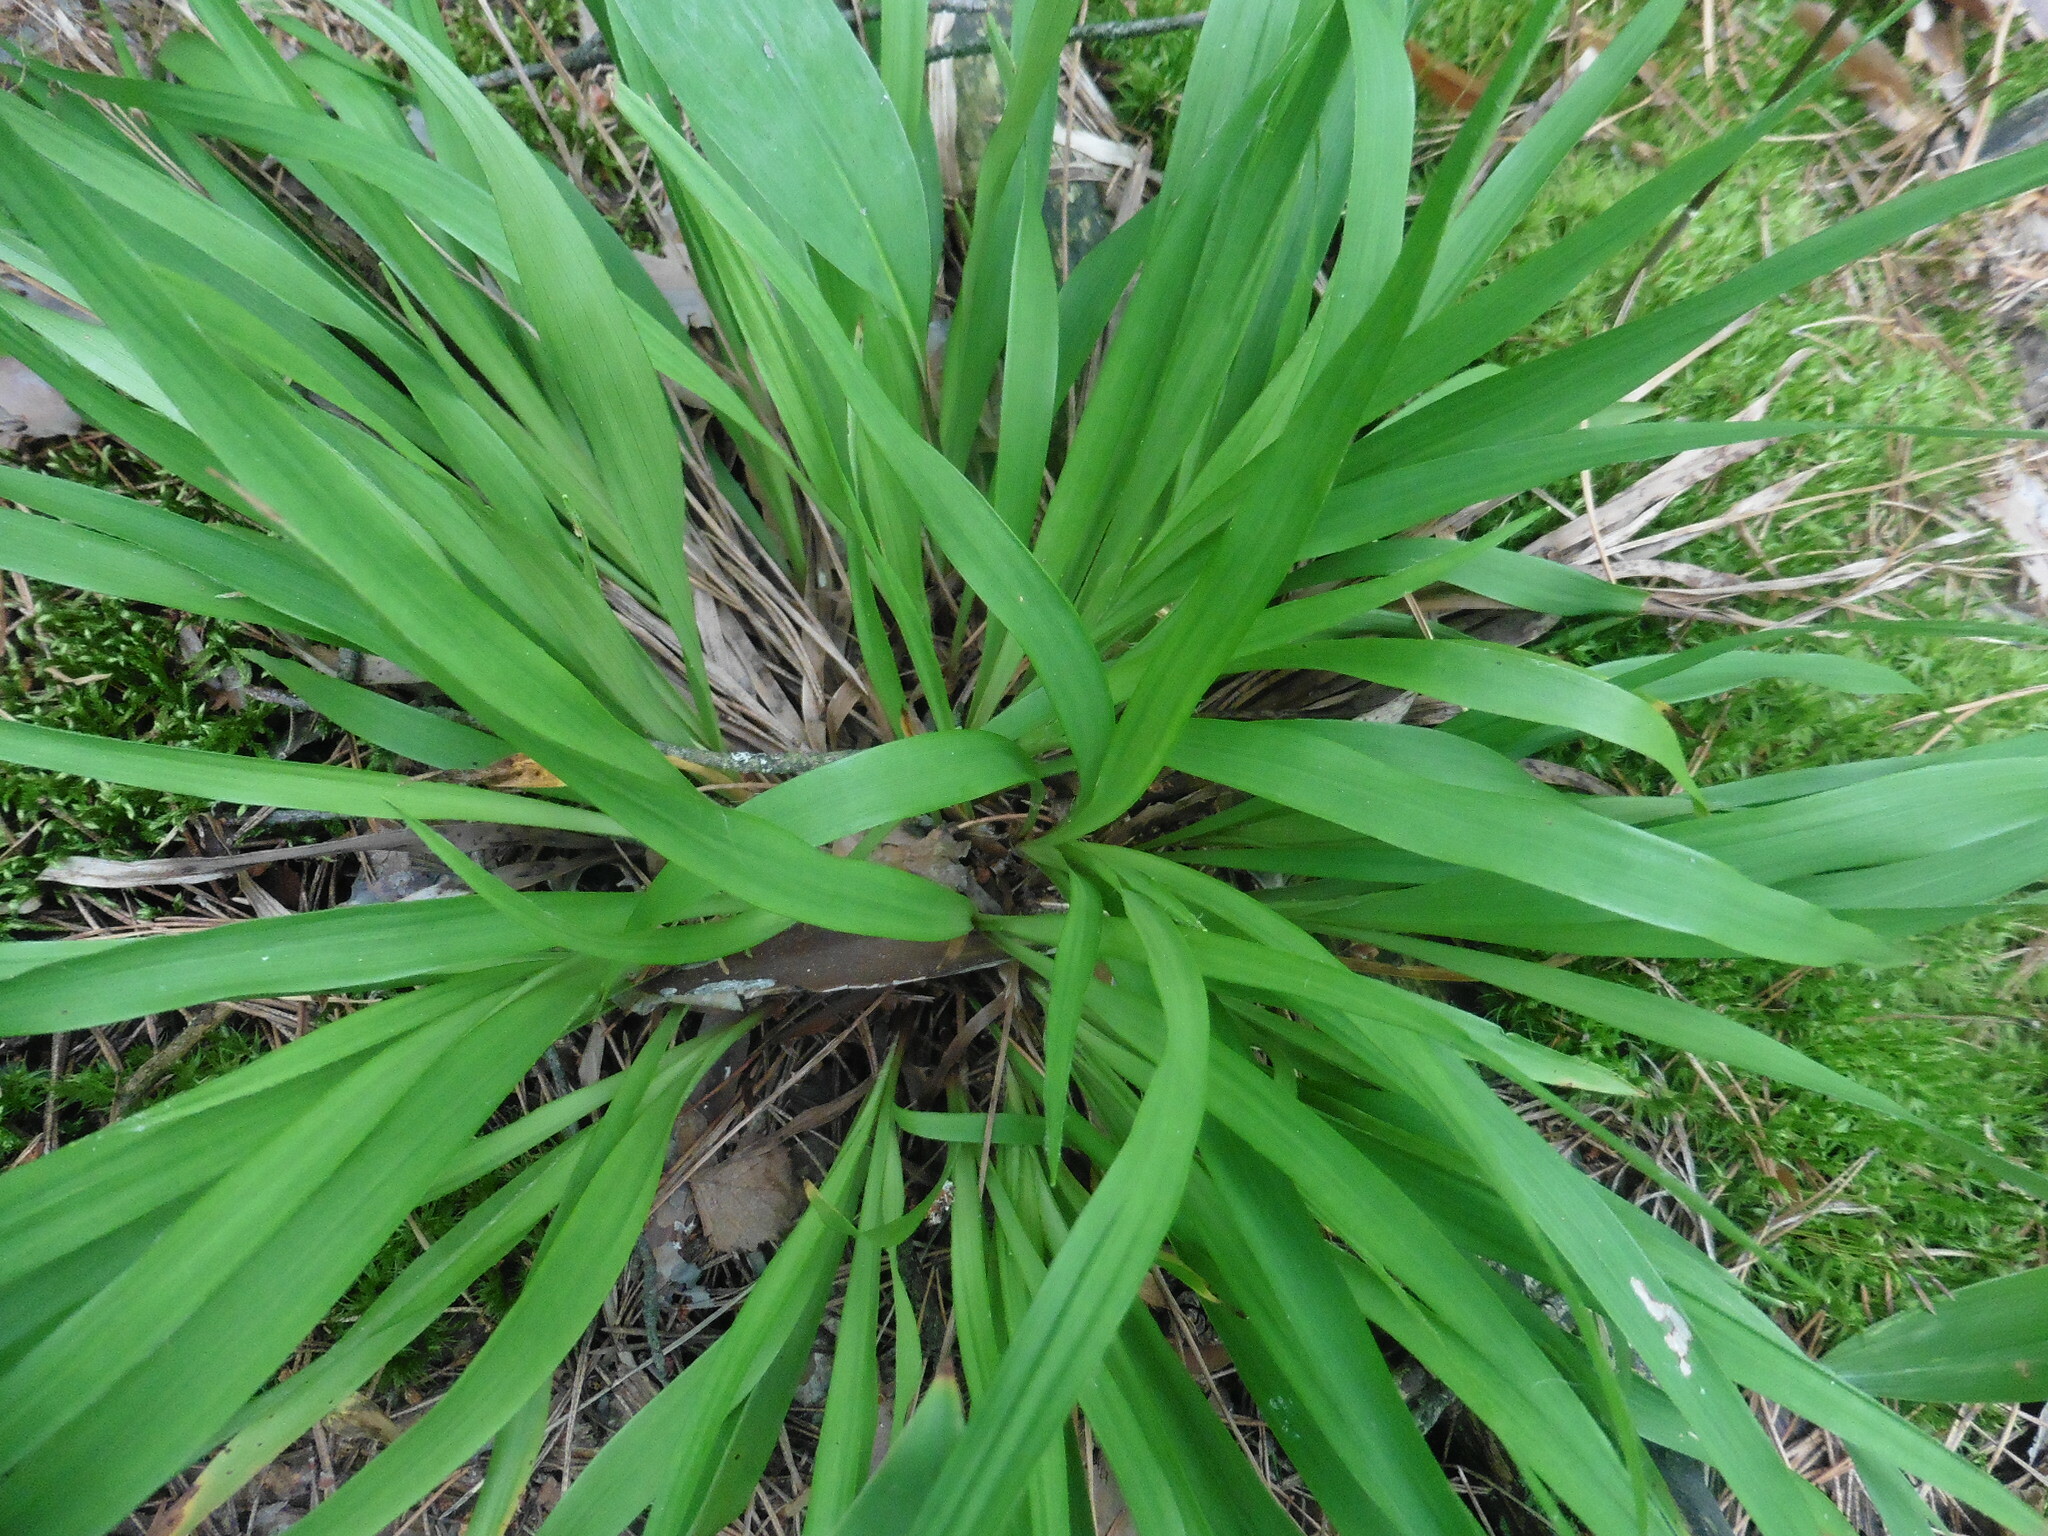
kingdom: Plantae
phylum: Tracheophyta
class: Liliopsida
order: Poales
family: Juncaceae
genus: Luzula
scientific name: Luzula pilosa
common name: Hairy wood-rush
